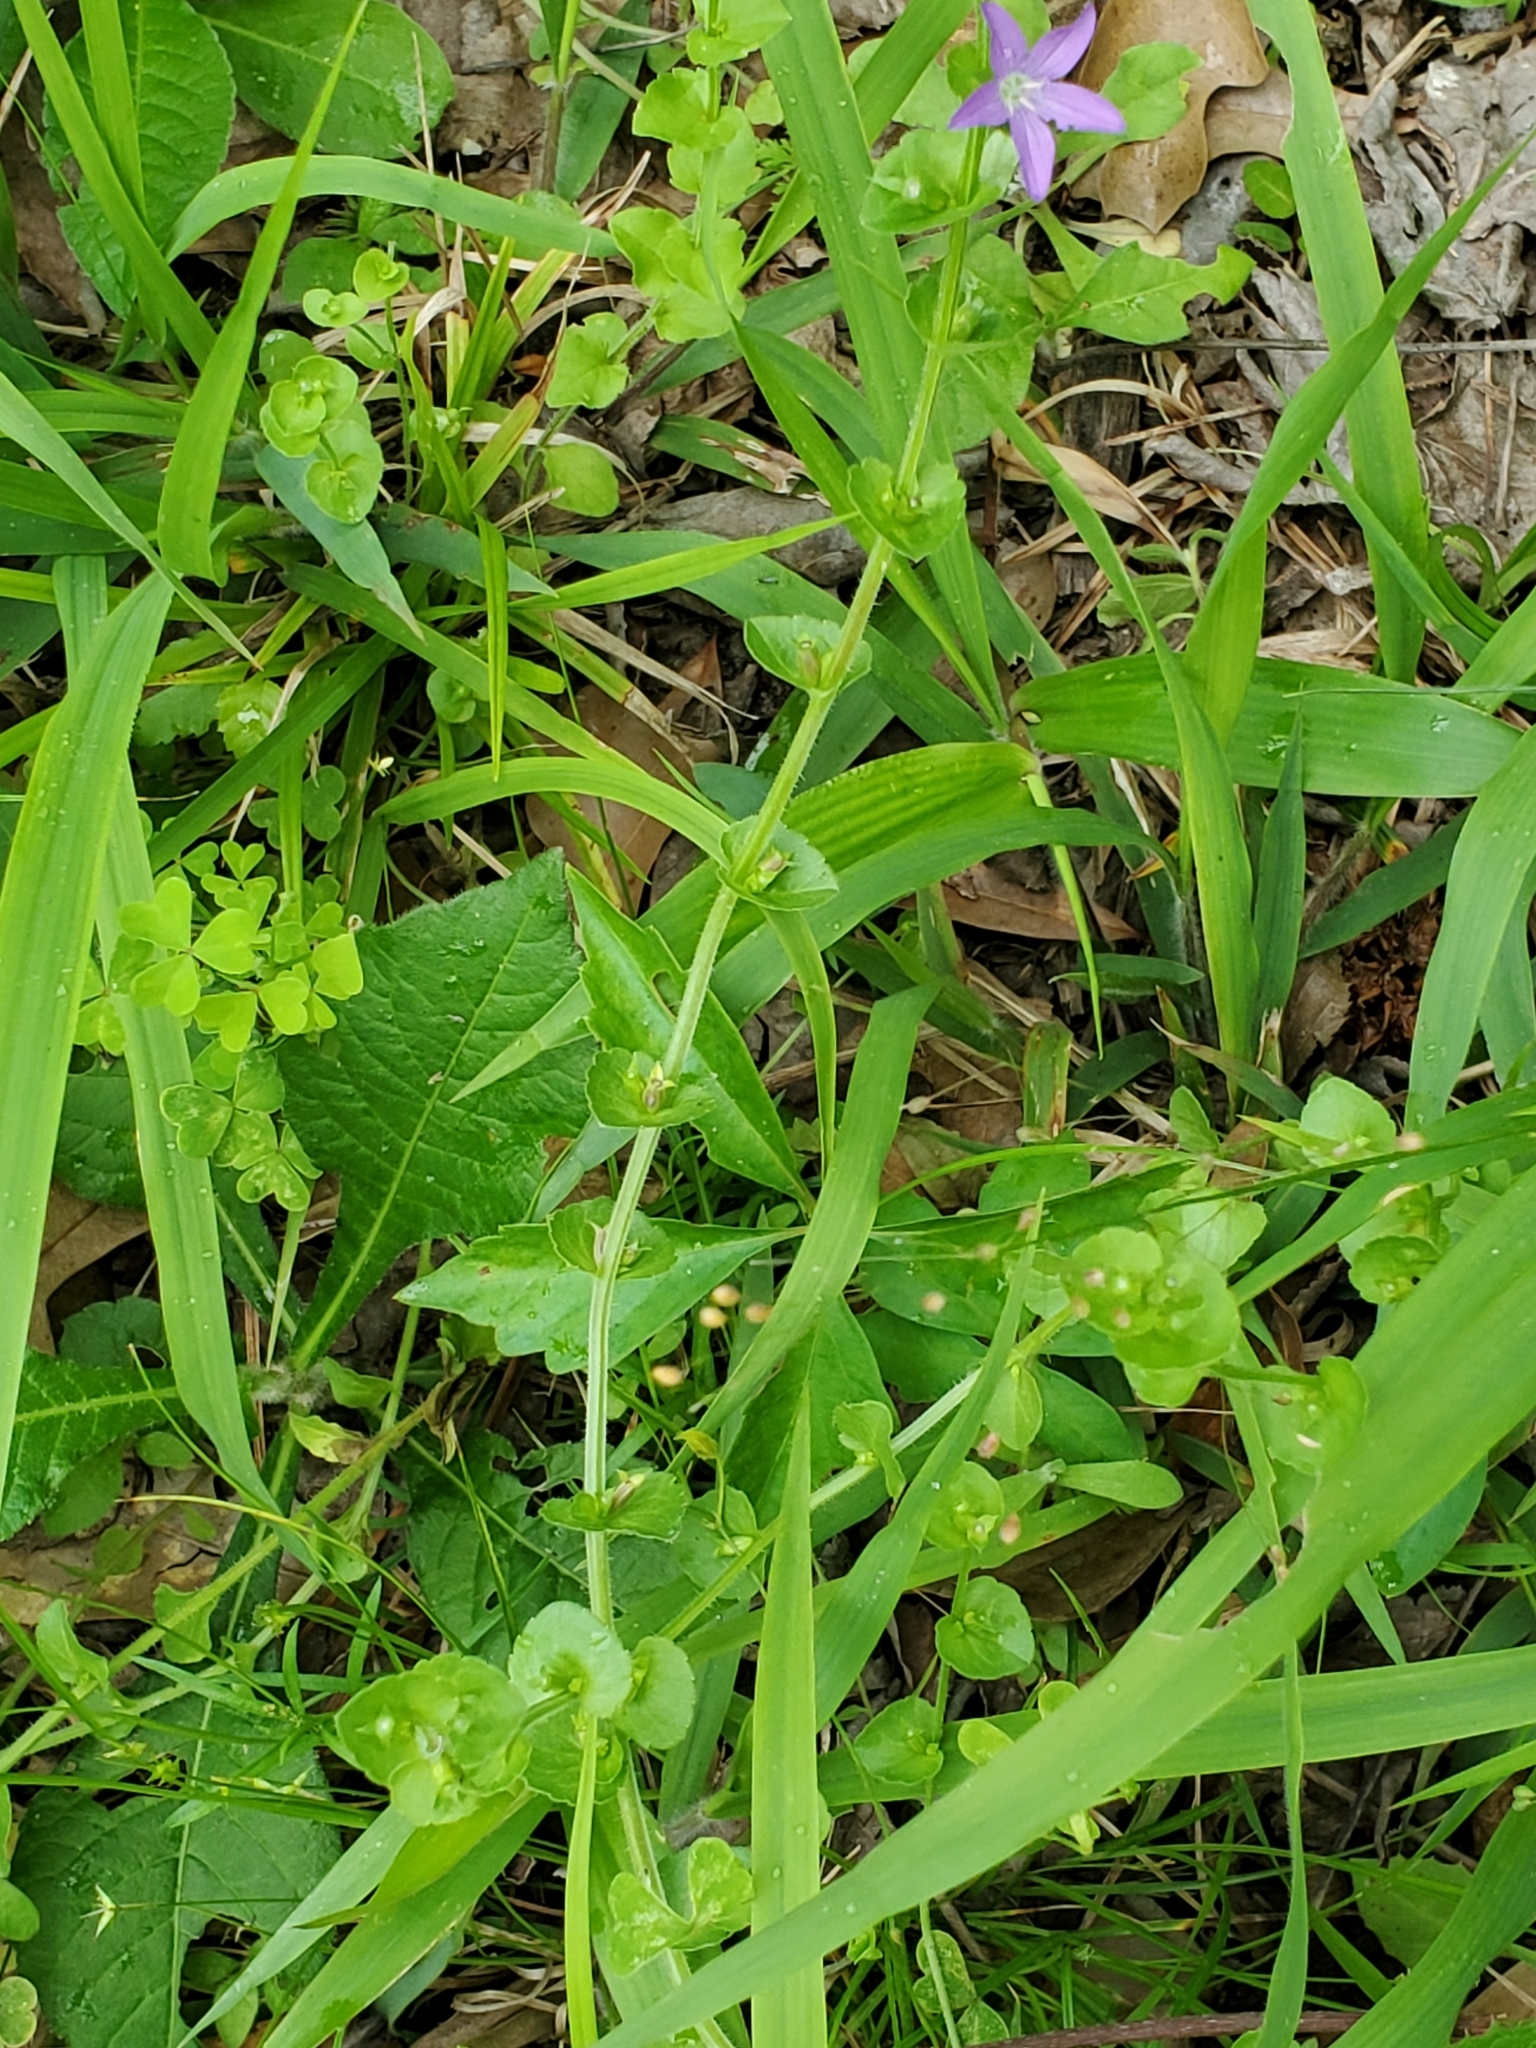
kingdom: Plantae
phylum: Tracheophyta
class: Magnoliopsida
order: Asterales
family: Campanulaceae
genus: Triodanis
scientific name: Triodanis perfoliata
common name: Clasping venus' looking-glass
